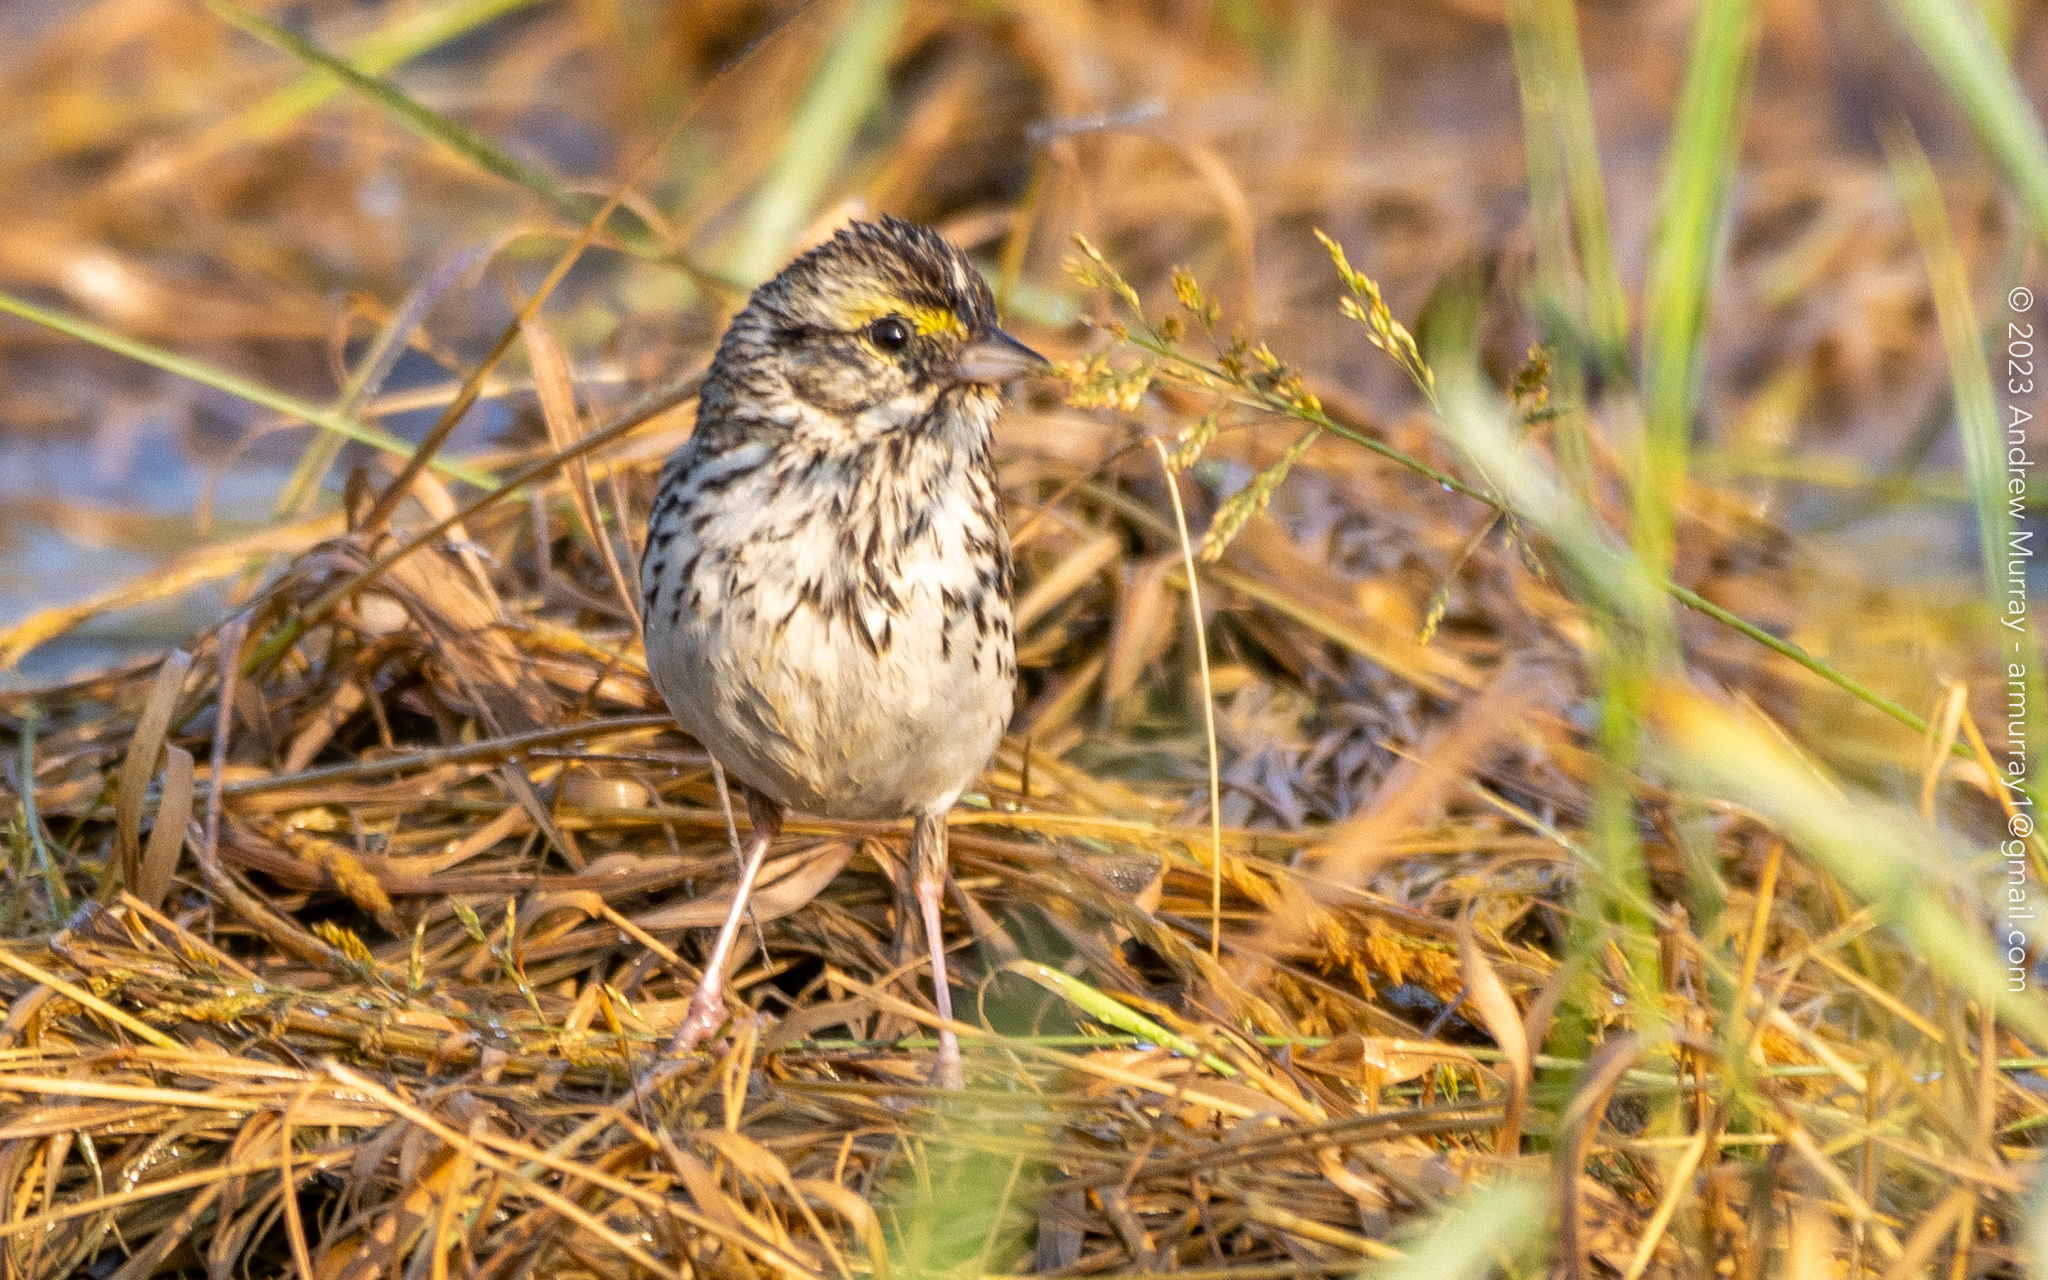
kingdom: Animalia
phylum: Chordata
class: Aves
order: Passeriformes
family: Passerellidae
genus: Passerculus
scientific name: Passerculus sandwichensis
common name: Savannah sparrow
